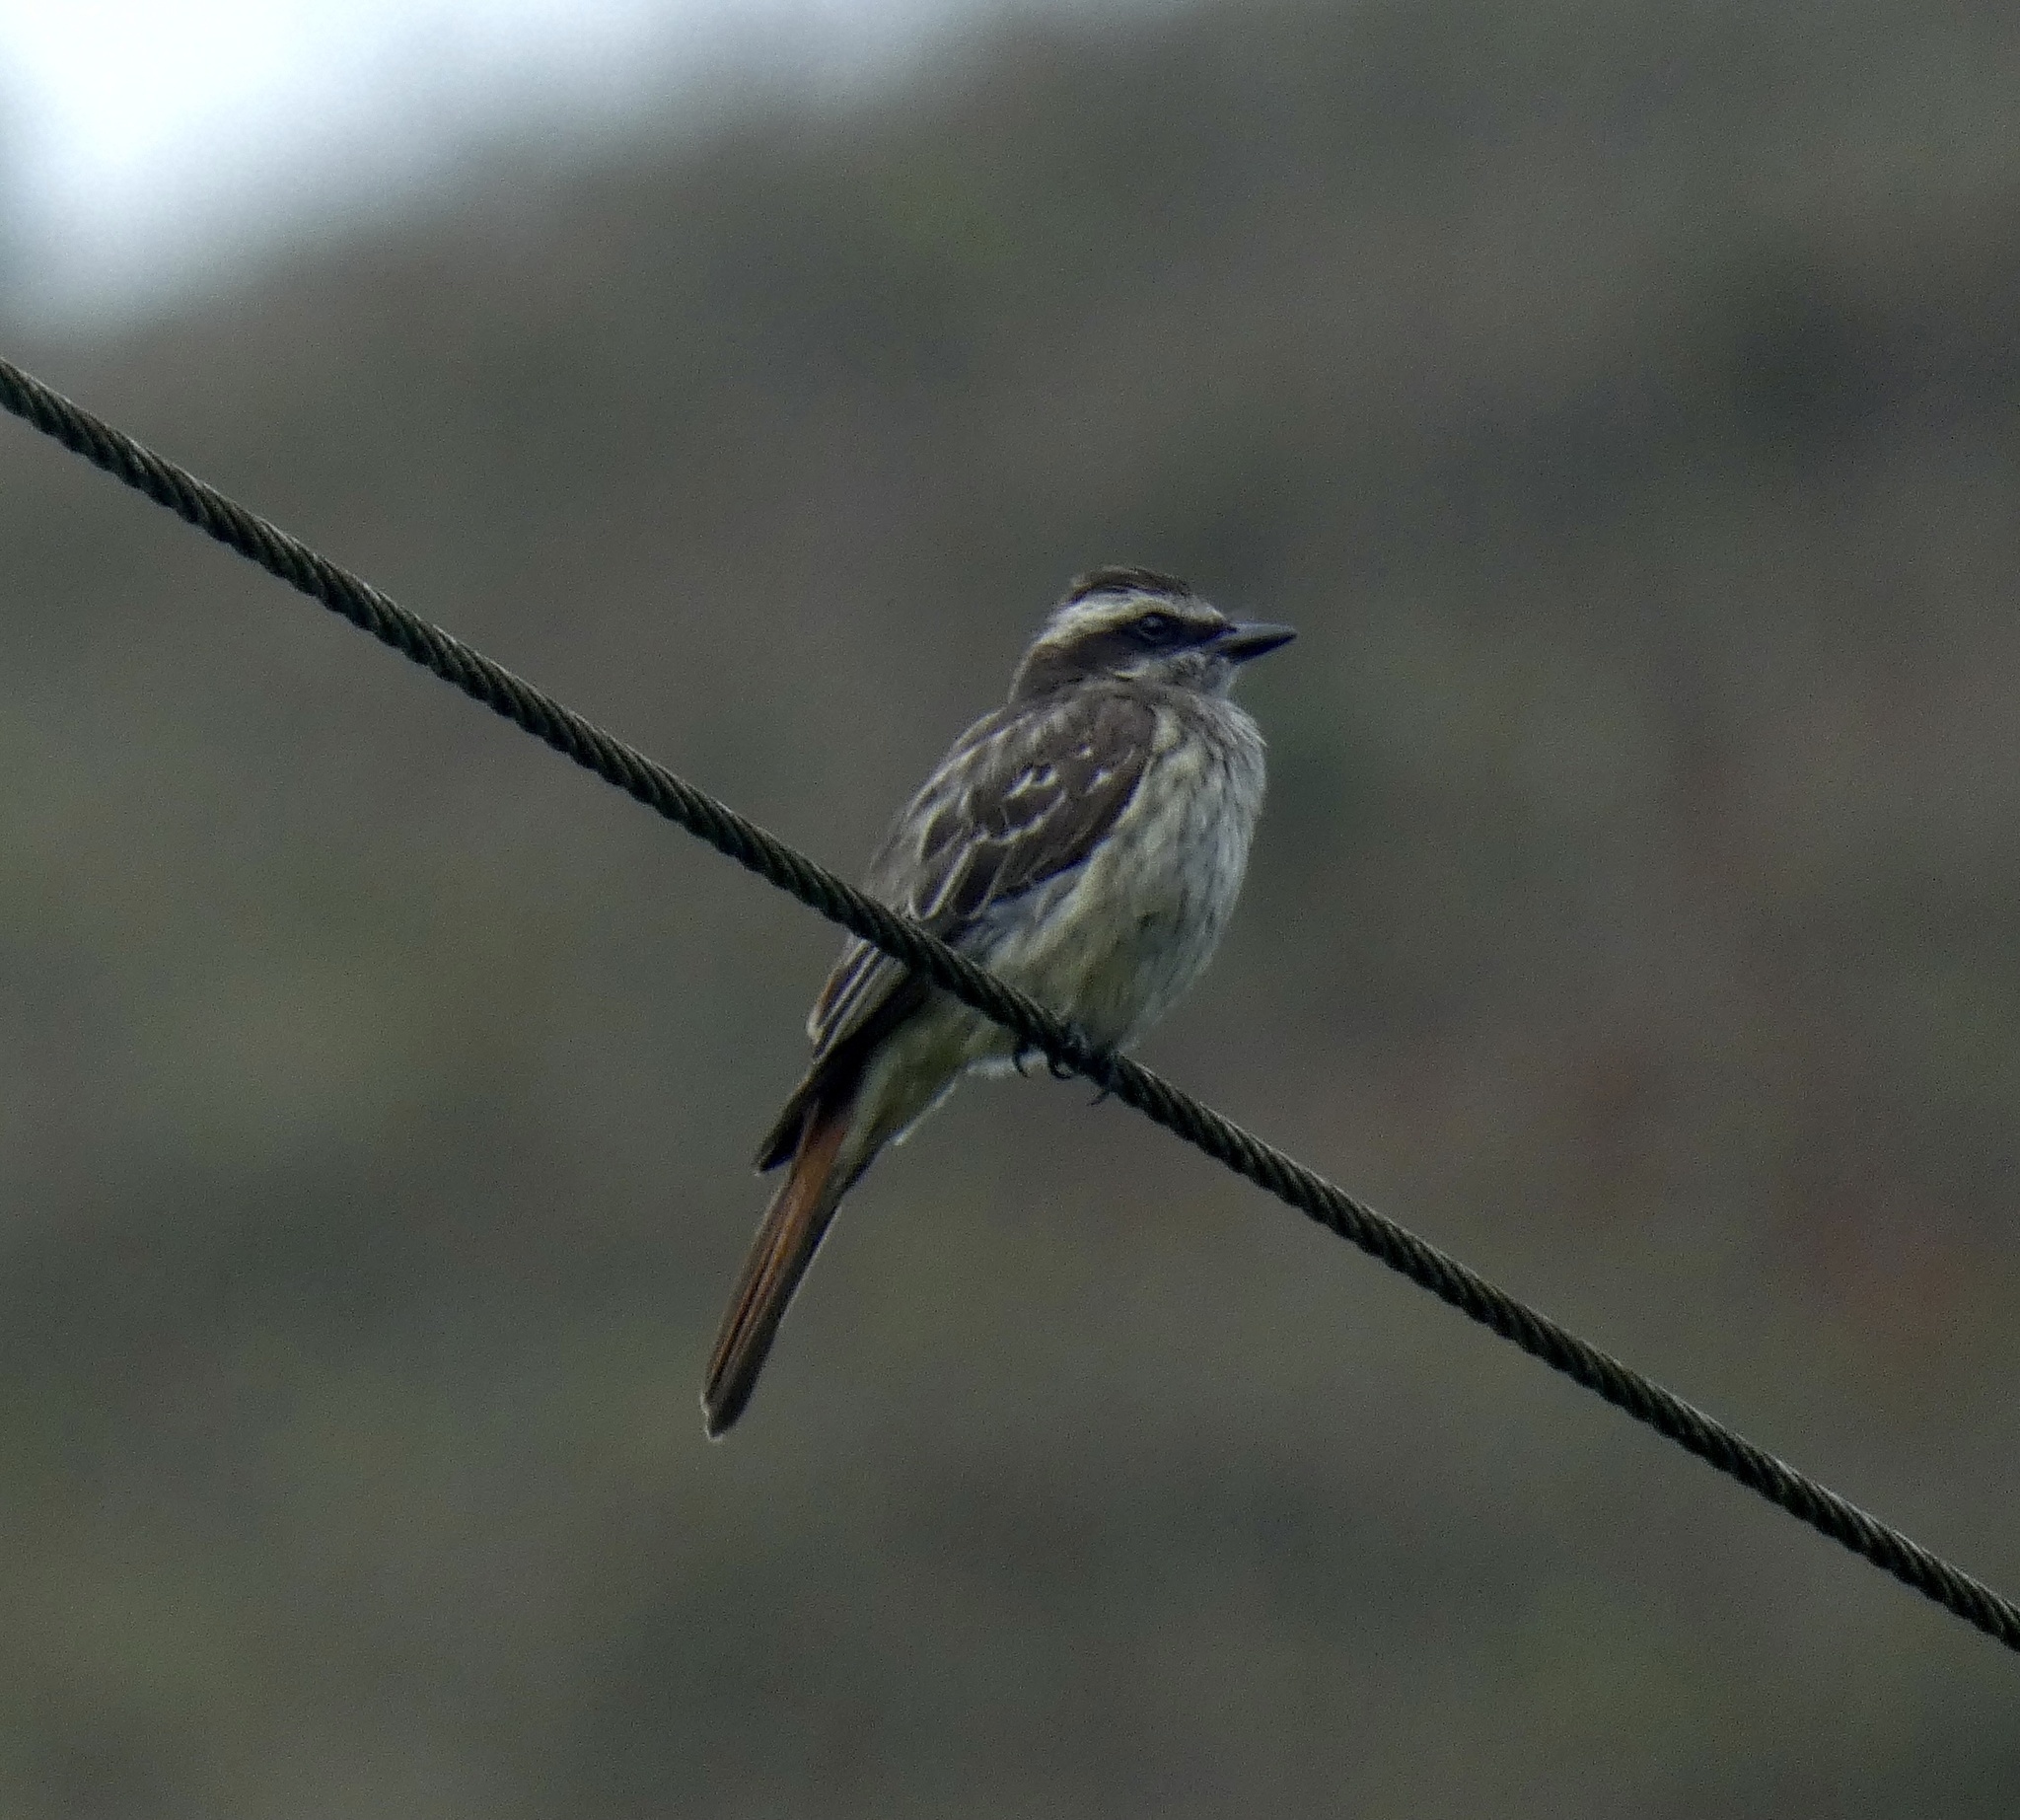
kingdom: Animalia
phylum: Chordata
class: Aves
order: Passeriformes
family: Tyrannidae
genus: Empidonomus
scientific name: Empidonomus varius
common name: Variegated flycatcher
